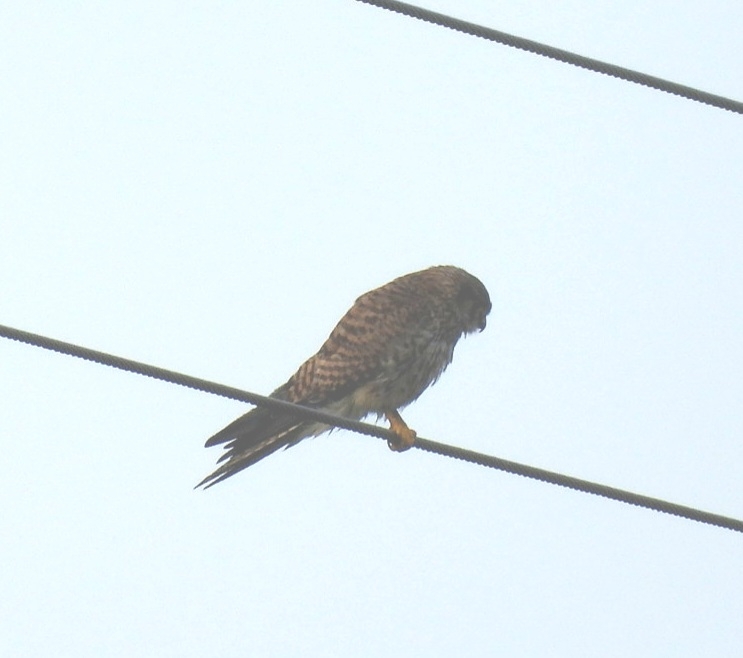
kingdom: Animalia
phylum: Chordata
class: Aves
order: Falconiformes
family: Falconidae
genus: Falco
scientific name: Falco tinnunculus
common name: Common kestrel
